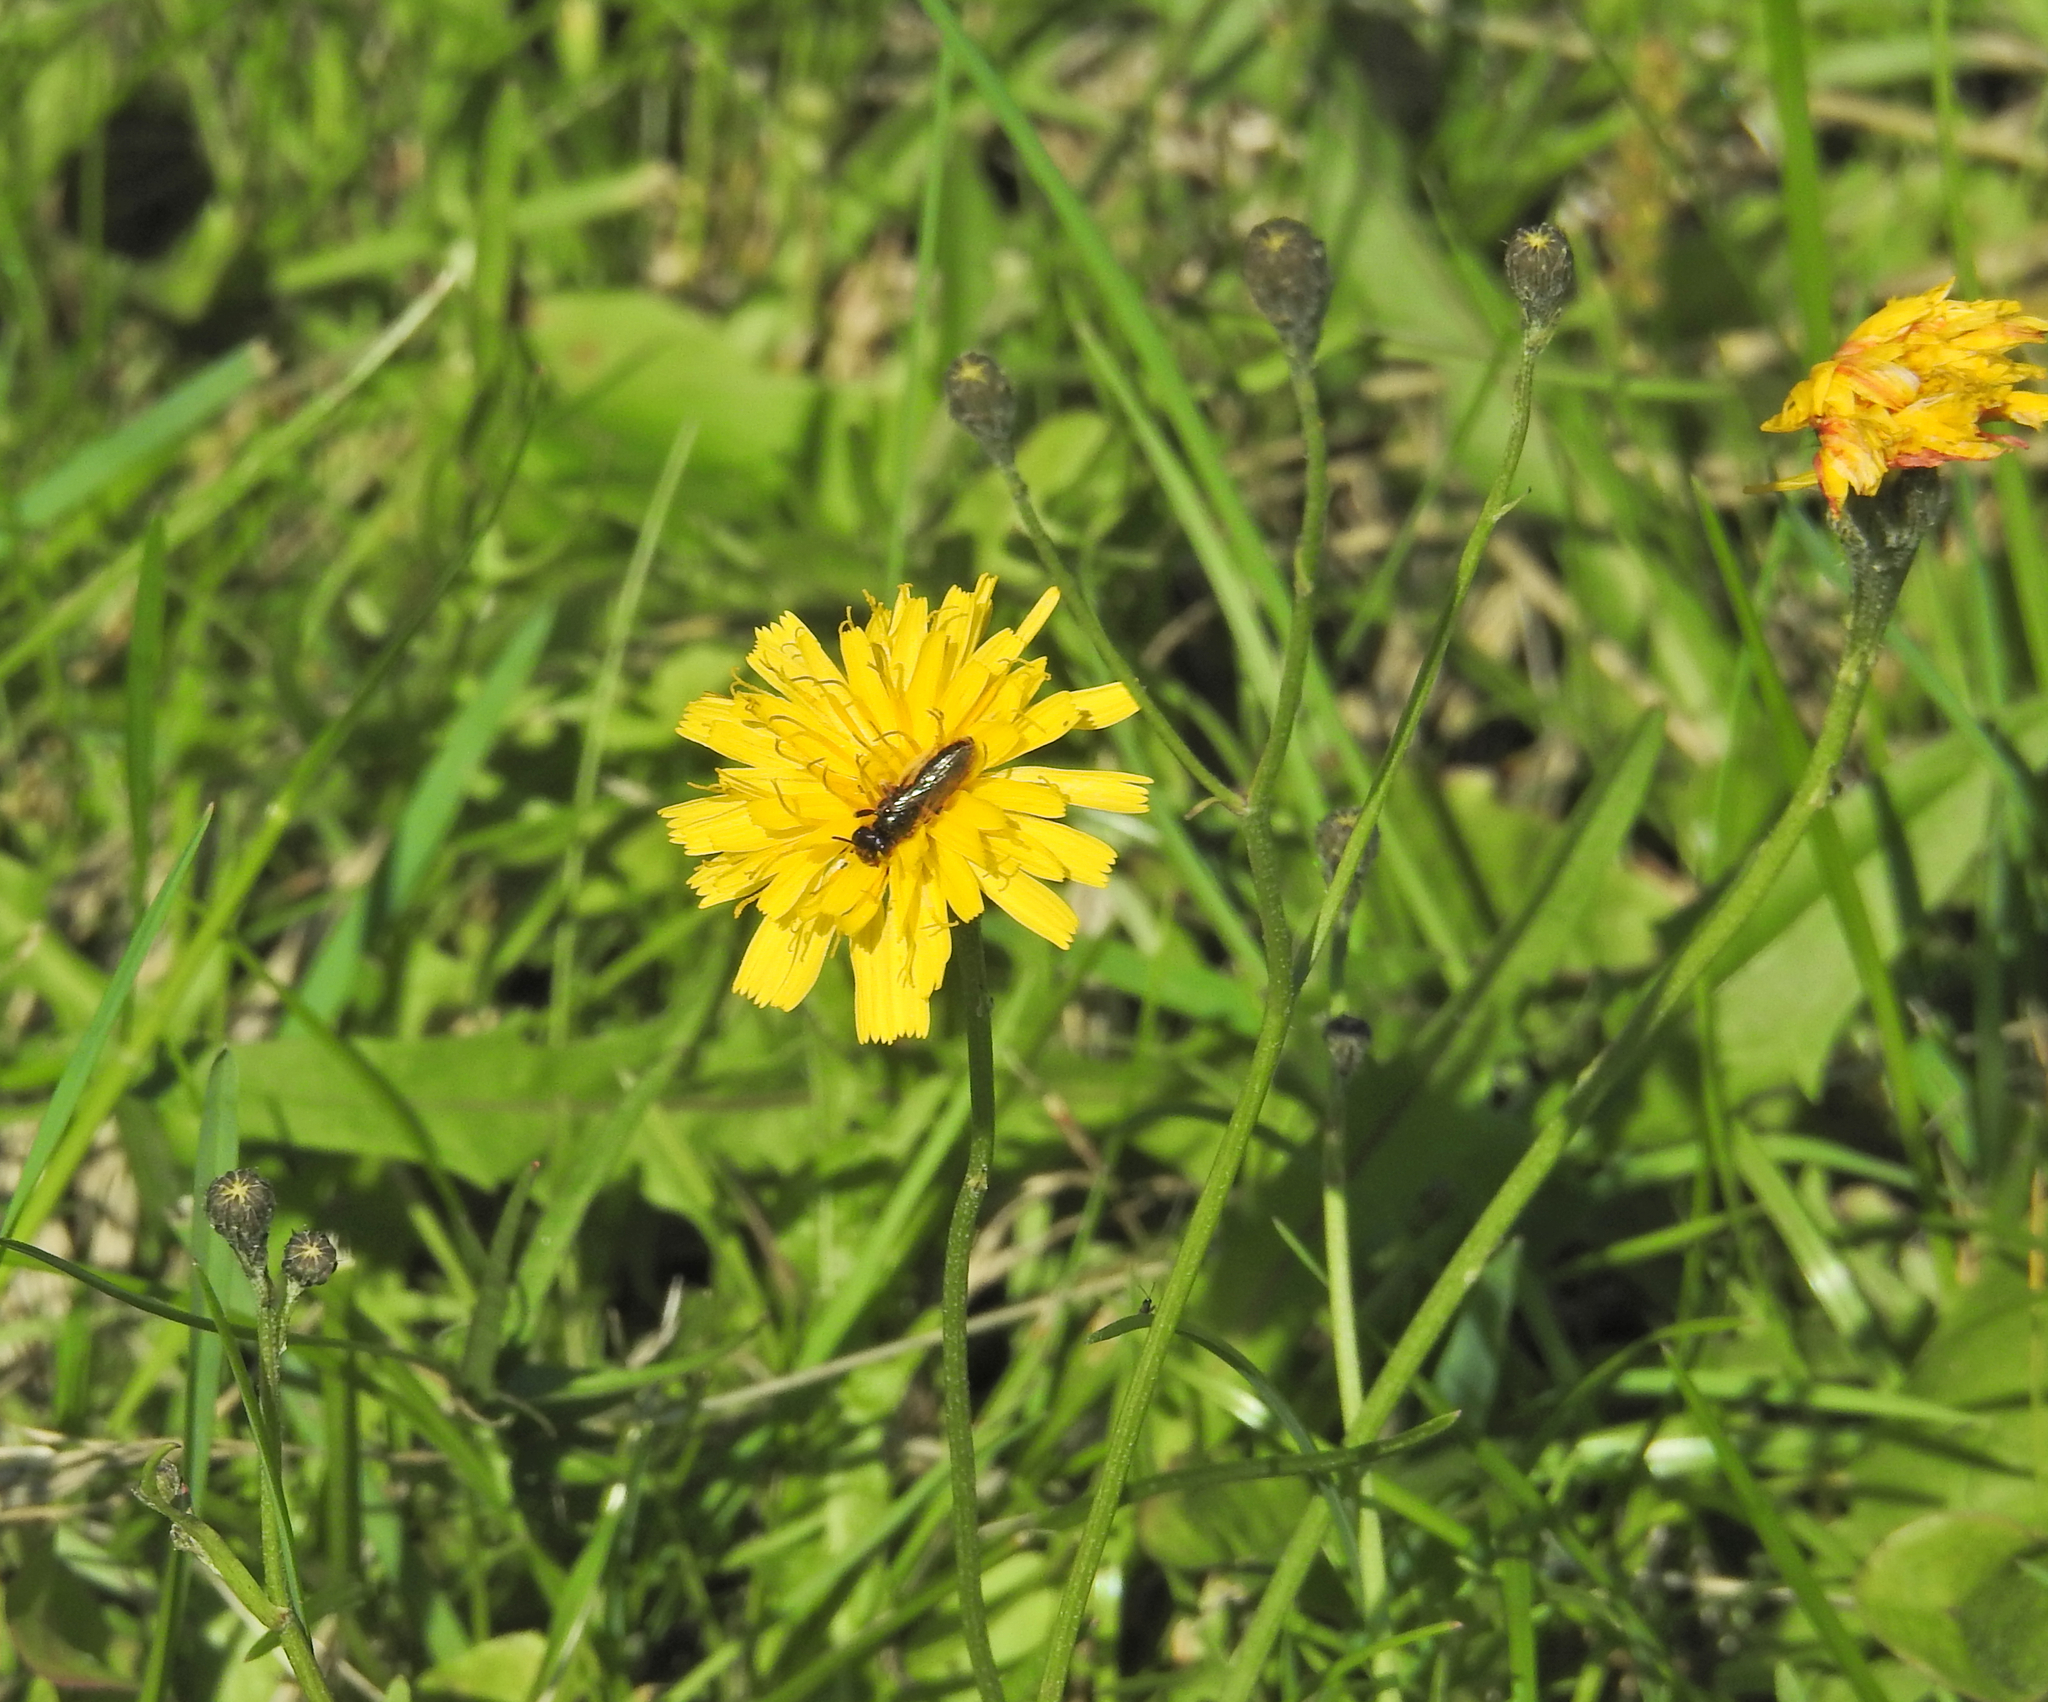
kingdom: Animalia
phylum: Arthropoda
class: Insecta
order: Hymenoptera
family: Andrenidae
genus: Panurgus
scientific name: Panurgus calcaratus
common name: Small shaggy bee
